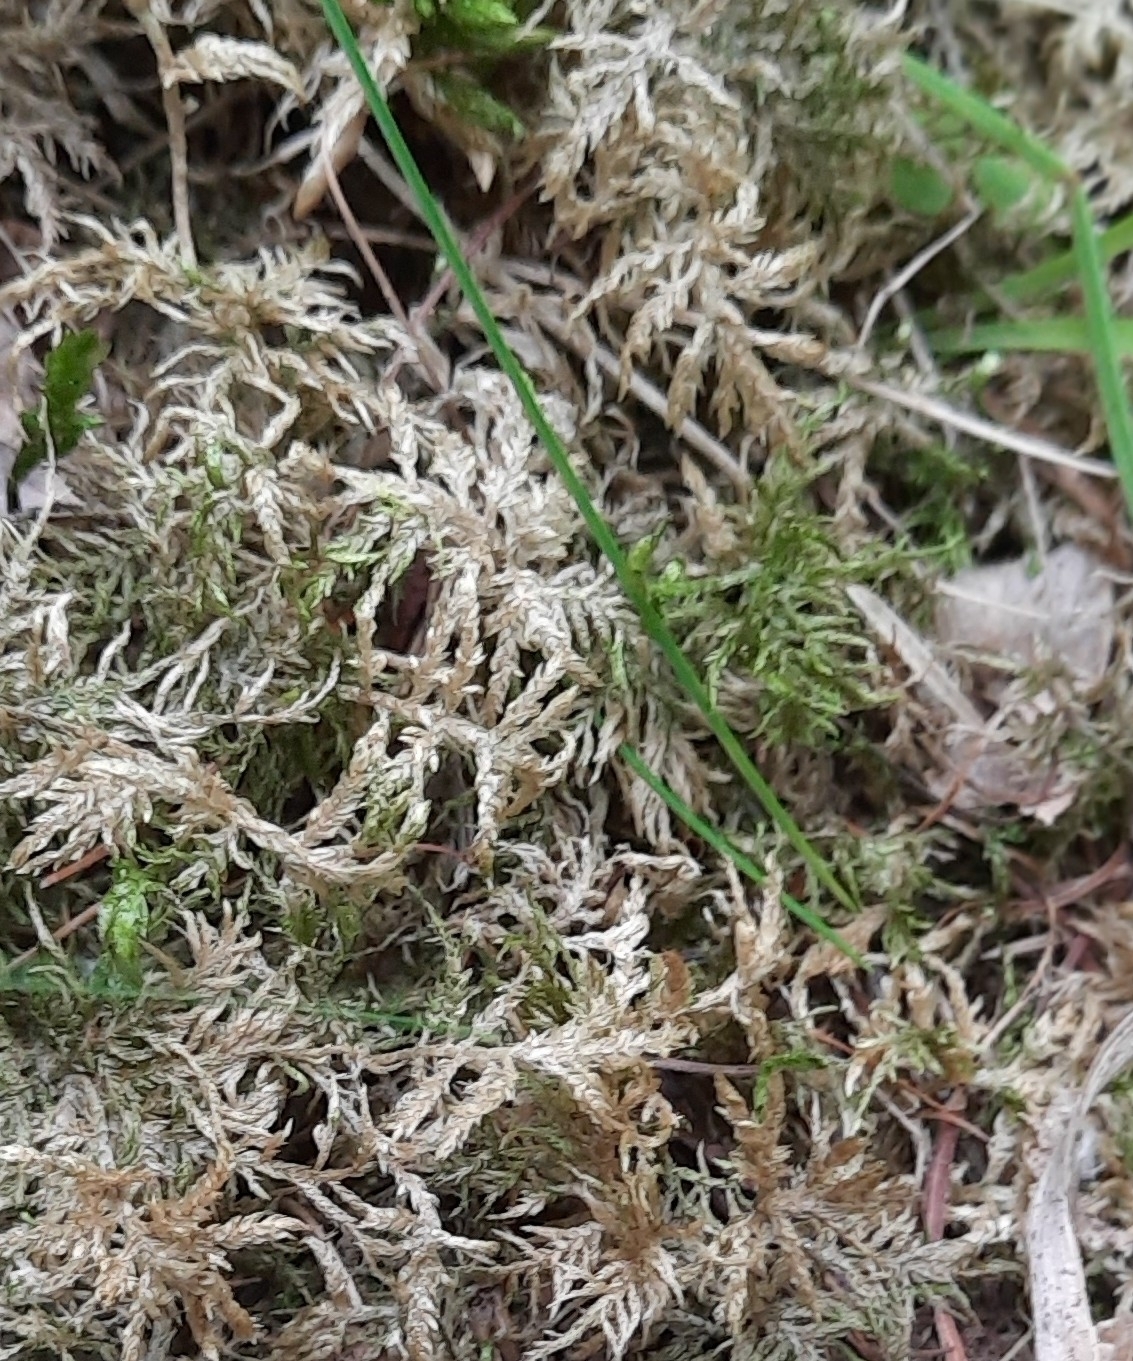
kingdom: Plantae
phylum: Bryophyta
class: Bryopsida
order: Hypnales
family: Hylocomiaceae
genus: Hylocomium
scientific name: Hylocomium splendens
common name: Stairstep moss
